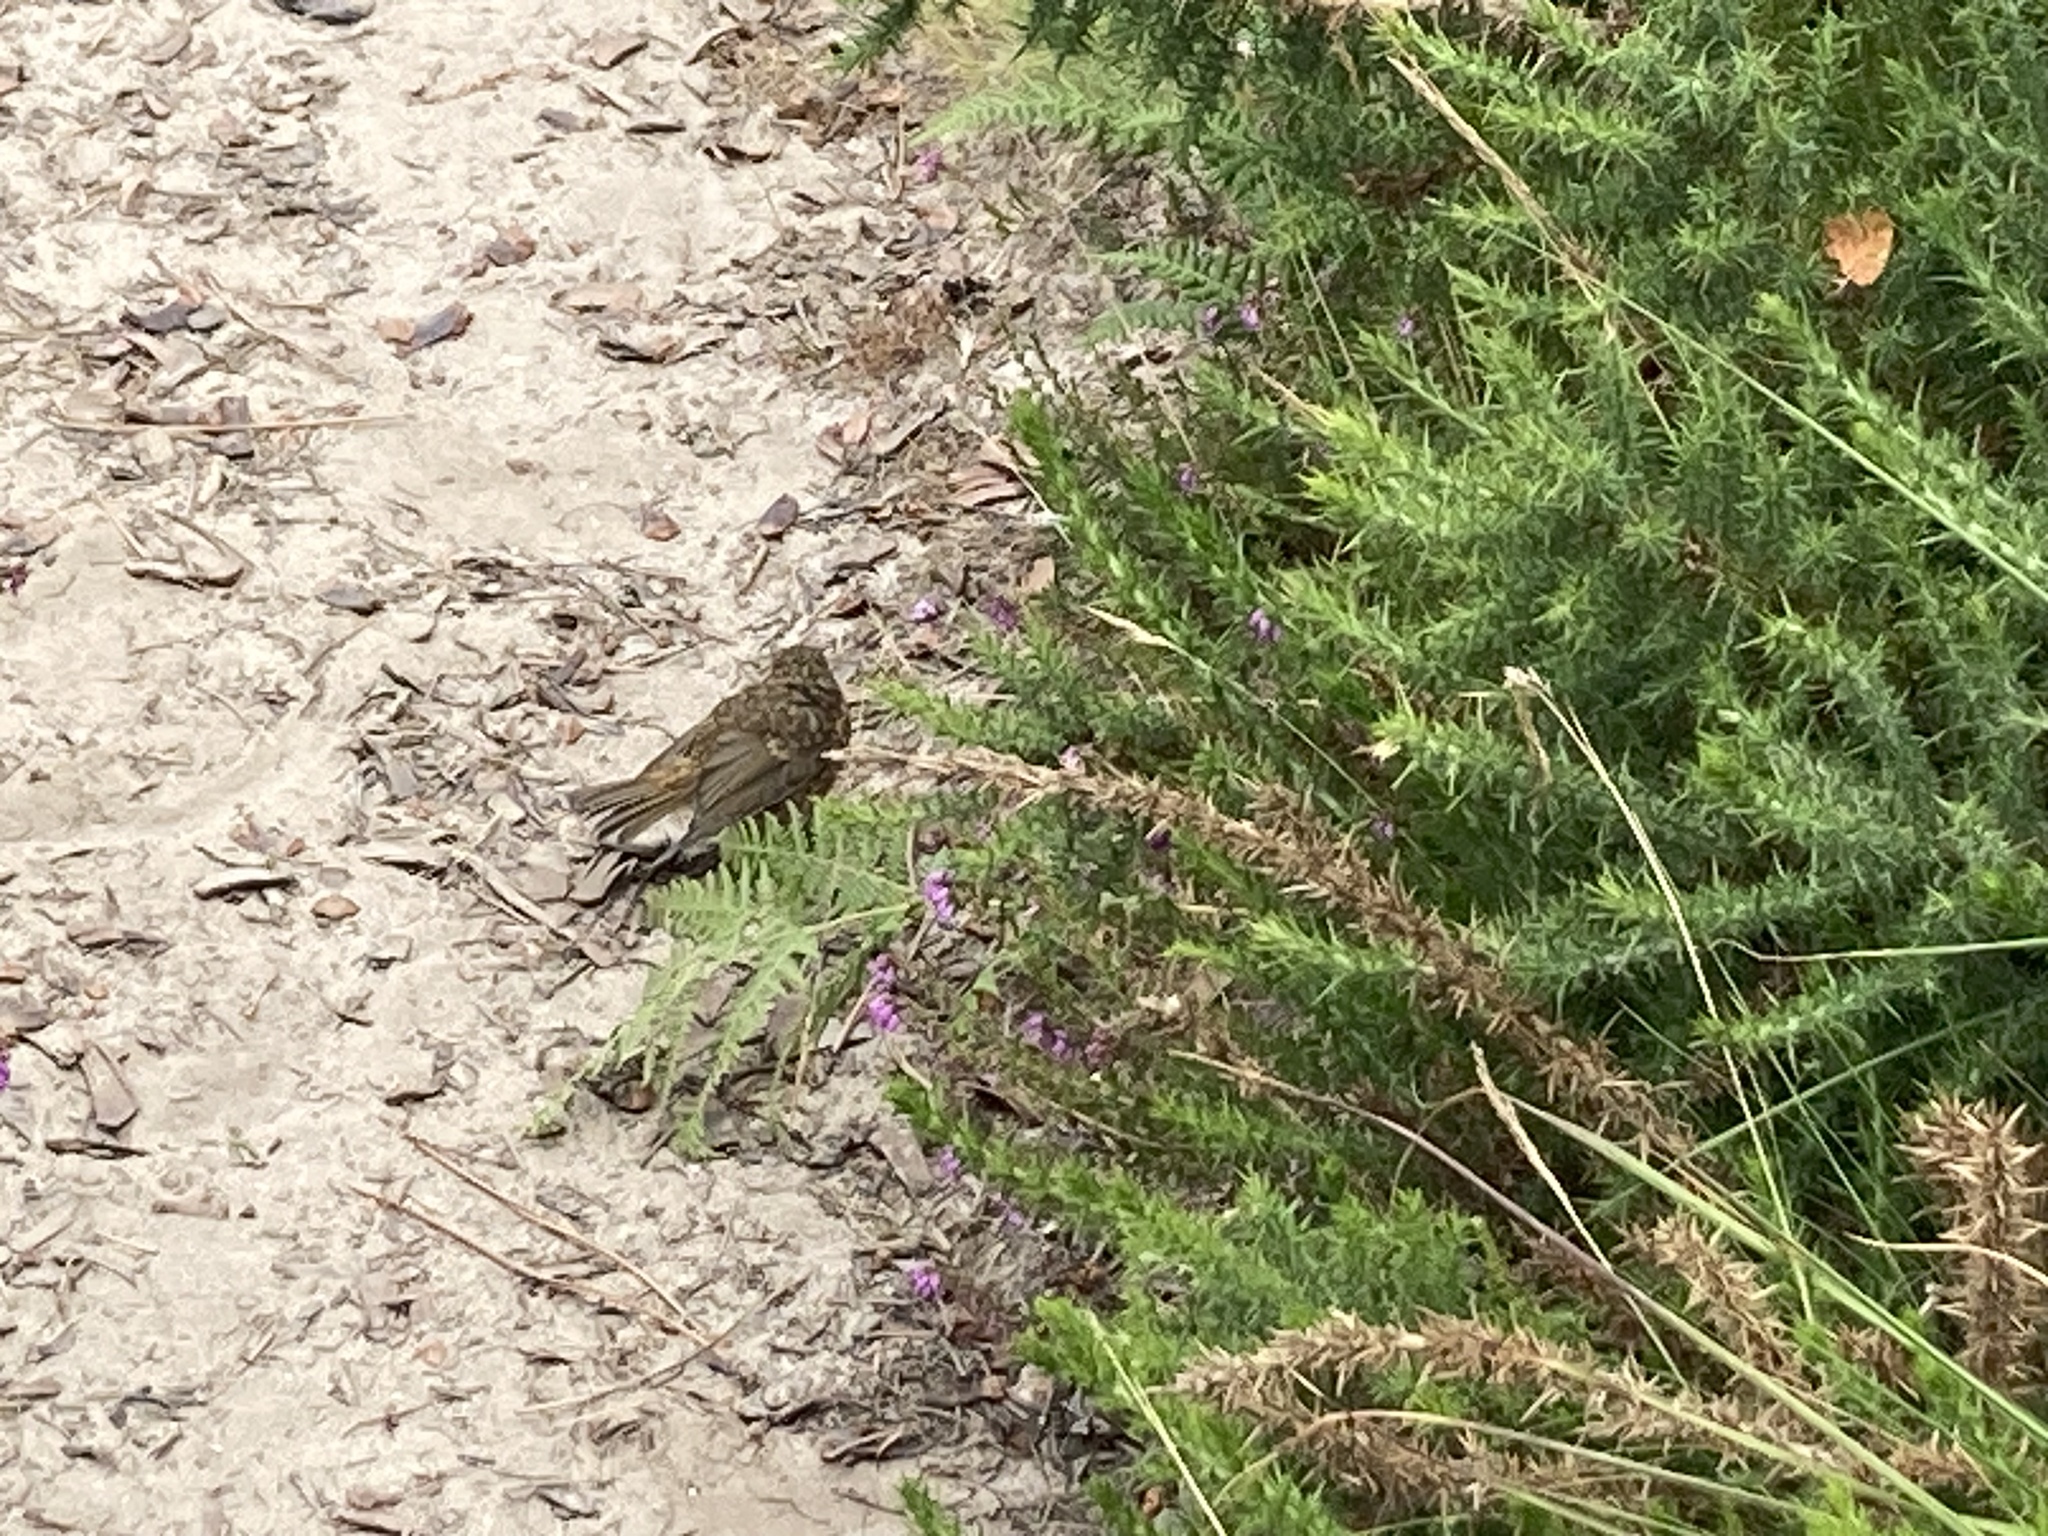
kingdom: Animalia
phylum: Chordata
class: Aves
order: Passeriformes
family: Muscicapidae
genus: Erithacus
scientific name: Erithacus rubecula
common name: European robin
